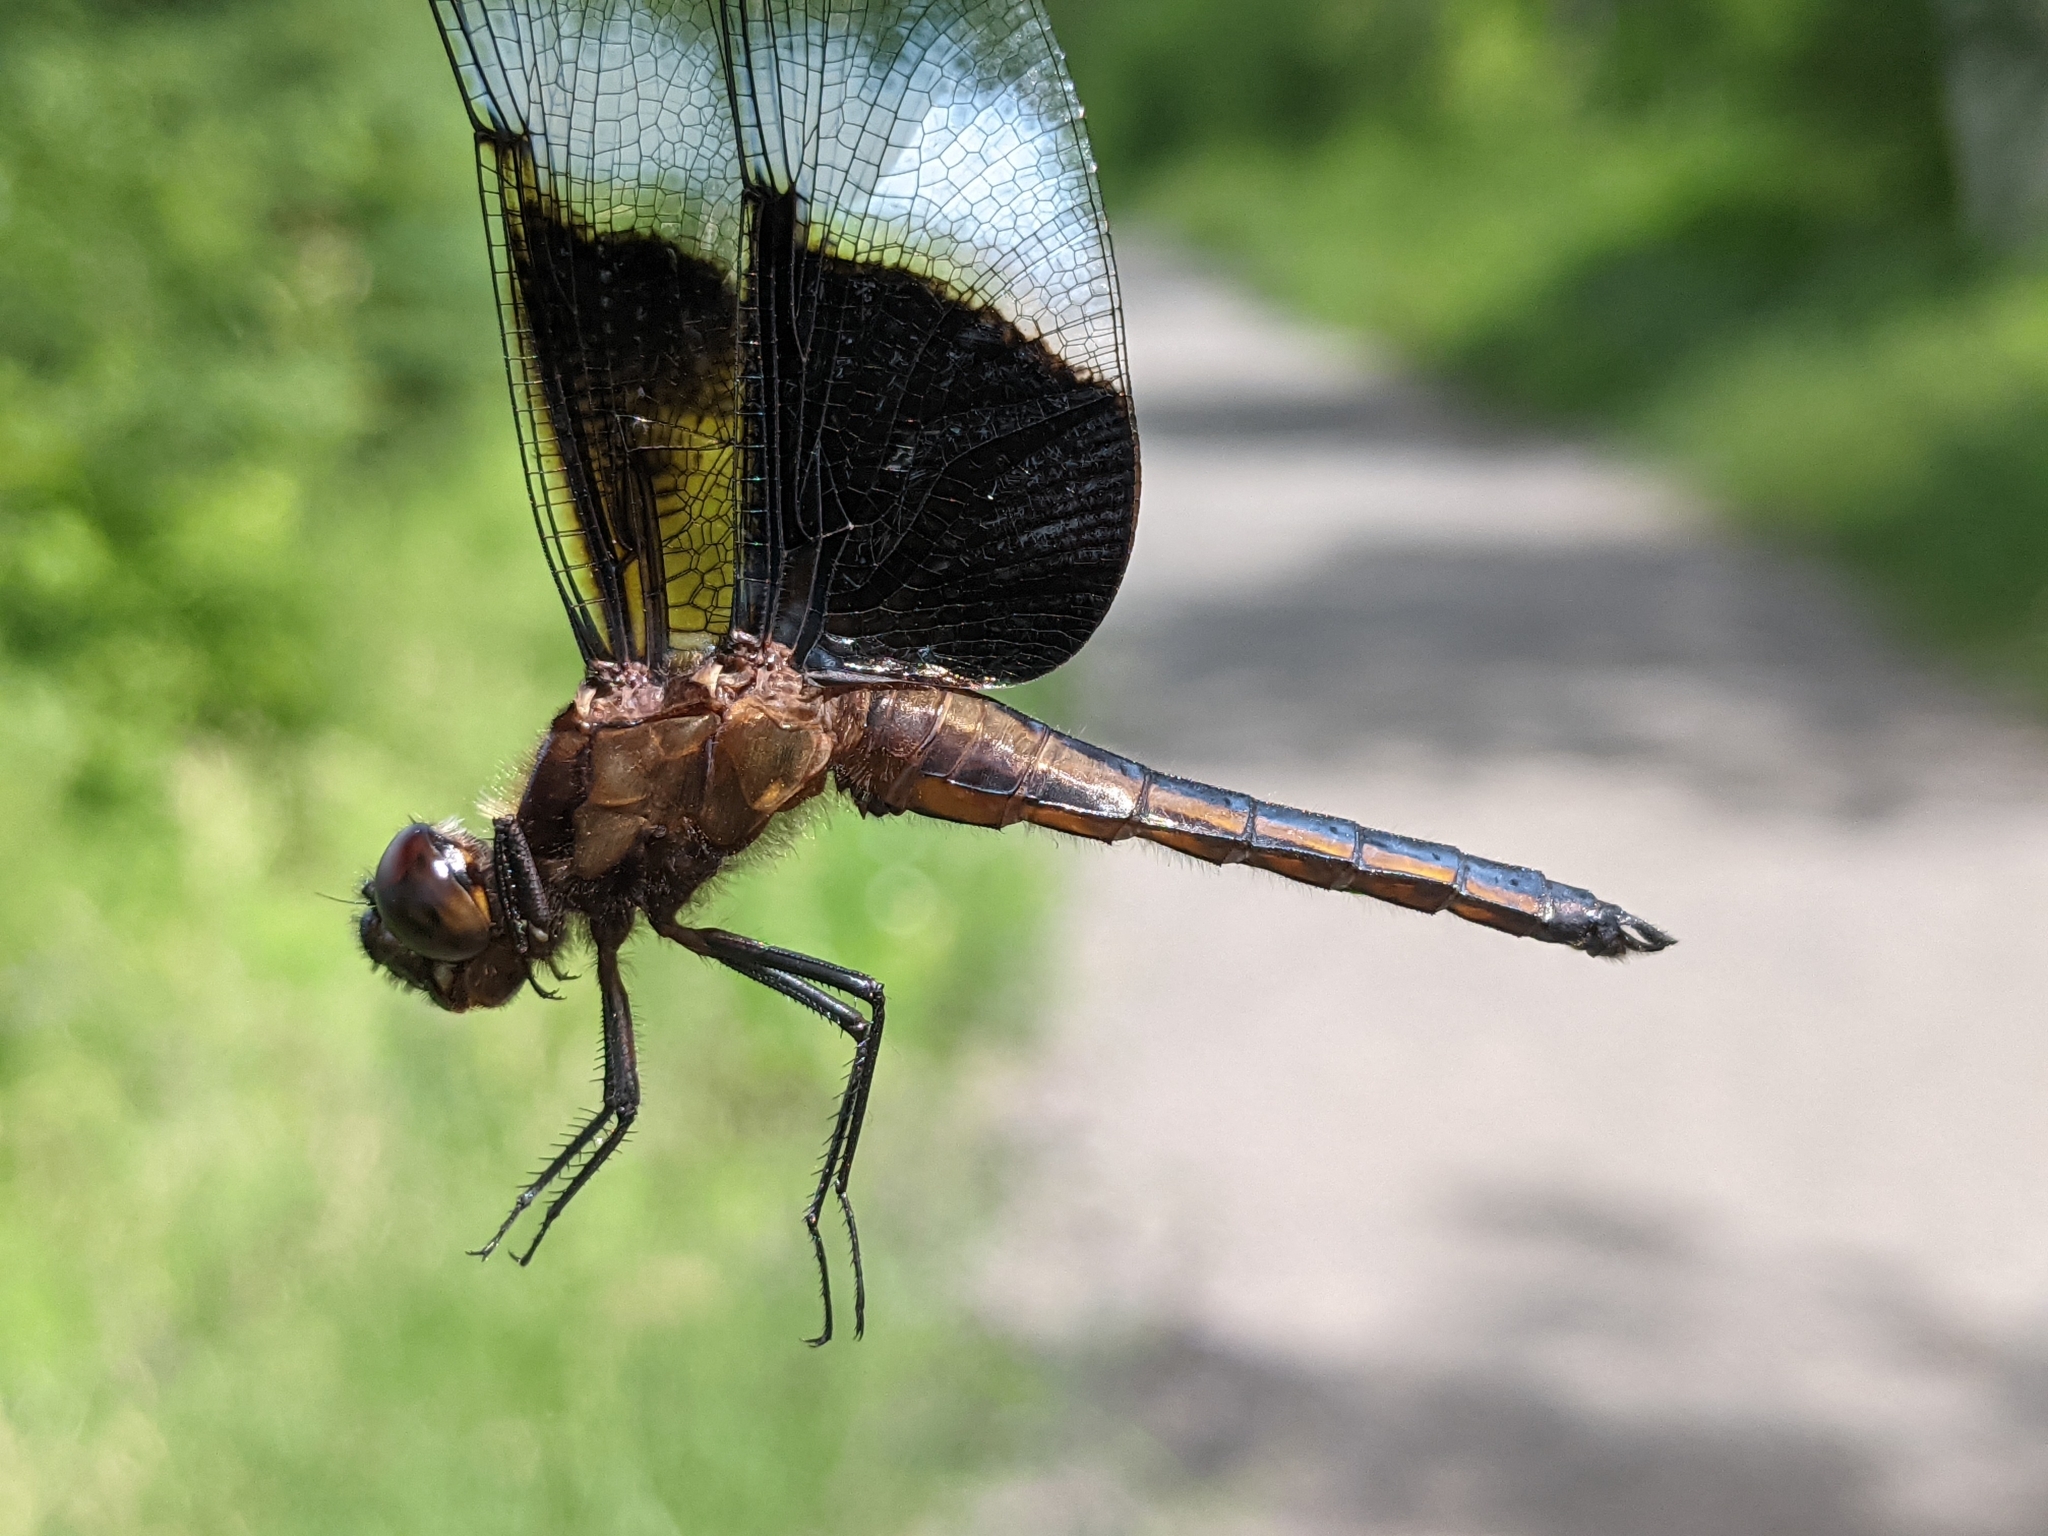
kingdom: Animalia
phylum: Arthropoda
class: Insecta
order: Odonata
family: Libellulidae
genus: Libellula
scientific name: Libellula luctuosa
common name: Widow skimmer
